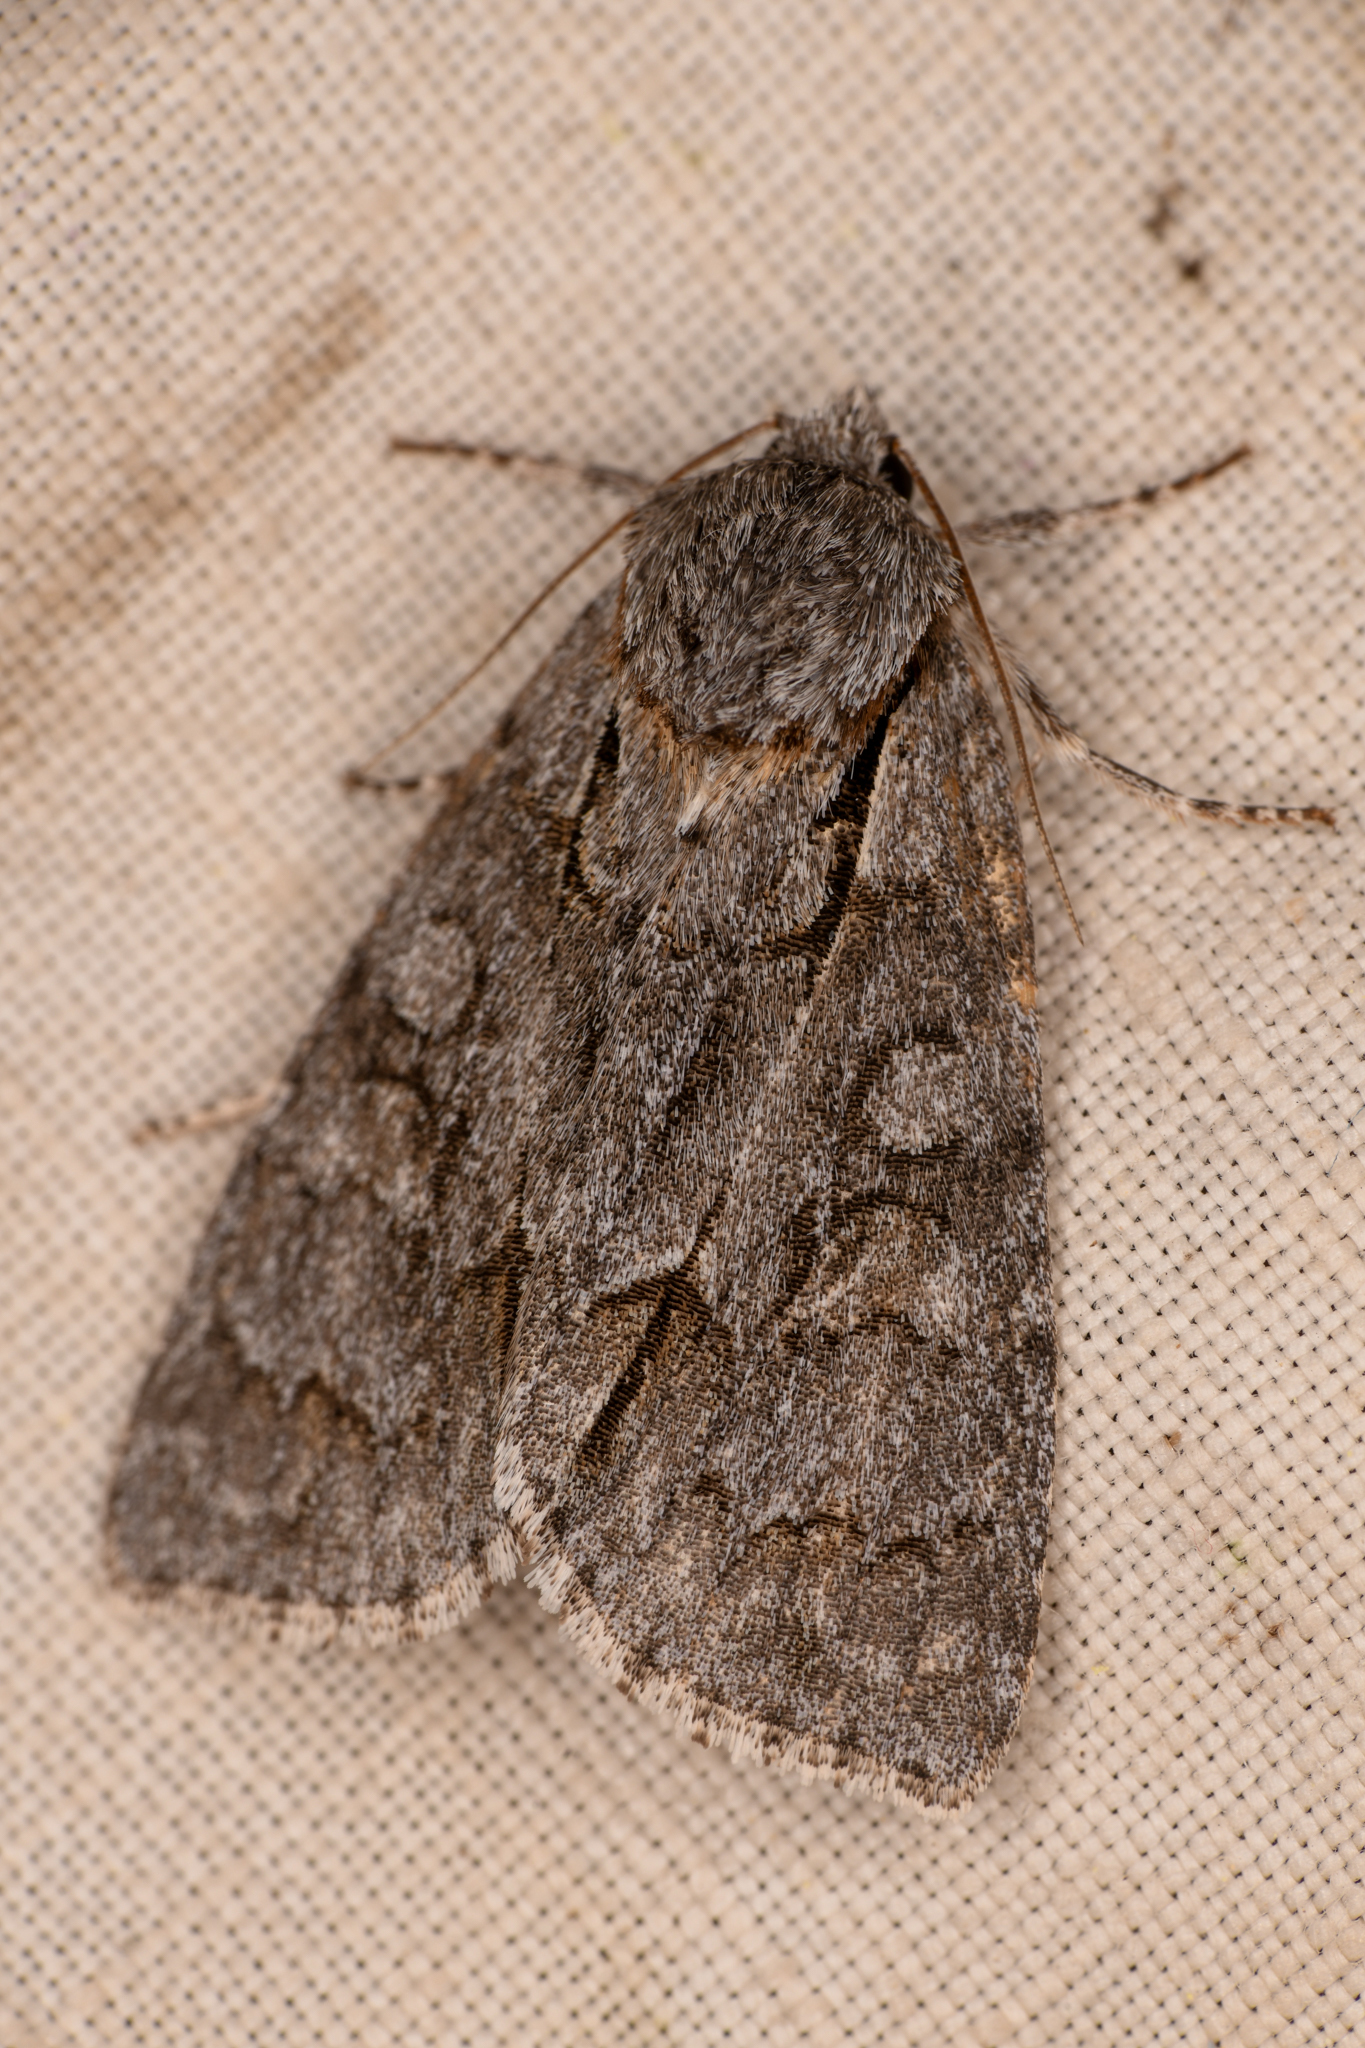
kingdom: Animalia
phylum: Arthropoda
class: Insecta
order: Lepidoptera
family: Noctuidae
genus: Acronicta
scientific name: Acronicta grisea
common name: Gray dagger
